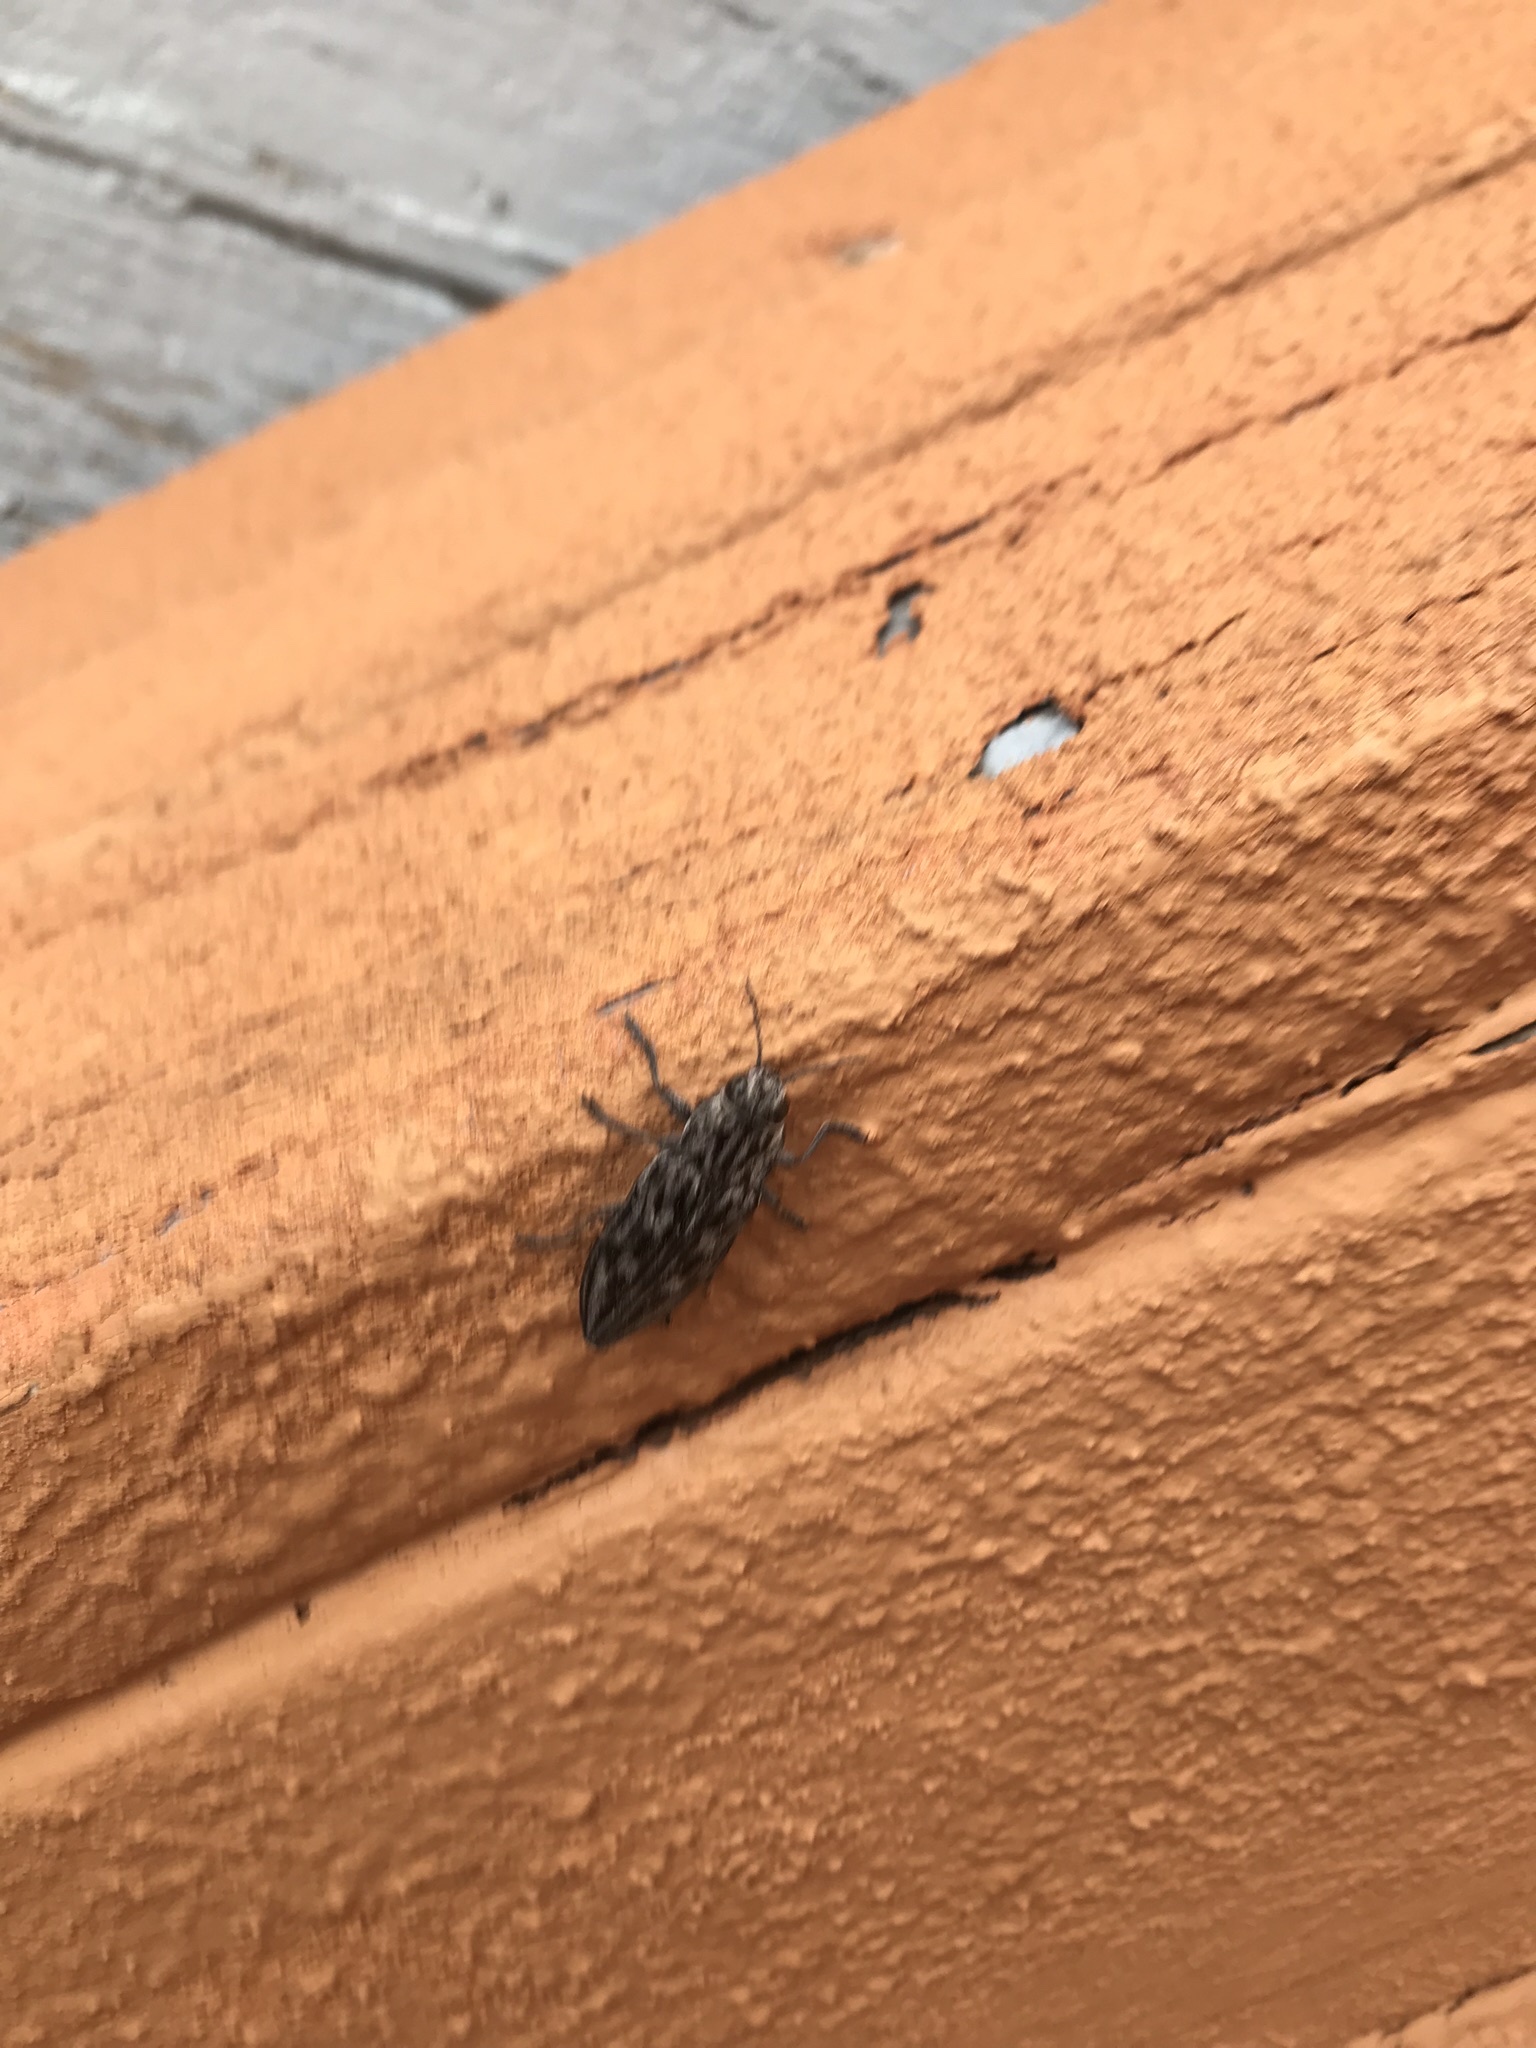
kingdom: Animalia
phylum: Arthropoda
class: Insecta
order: Coleoptera
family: Buprestidae
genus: Chalcophora
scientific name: Chalcophora angulicollis
